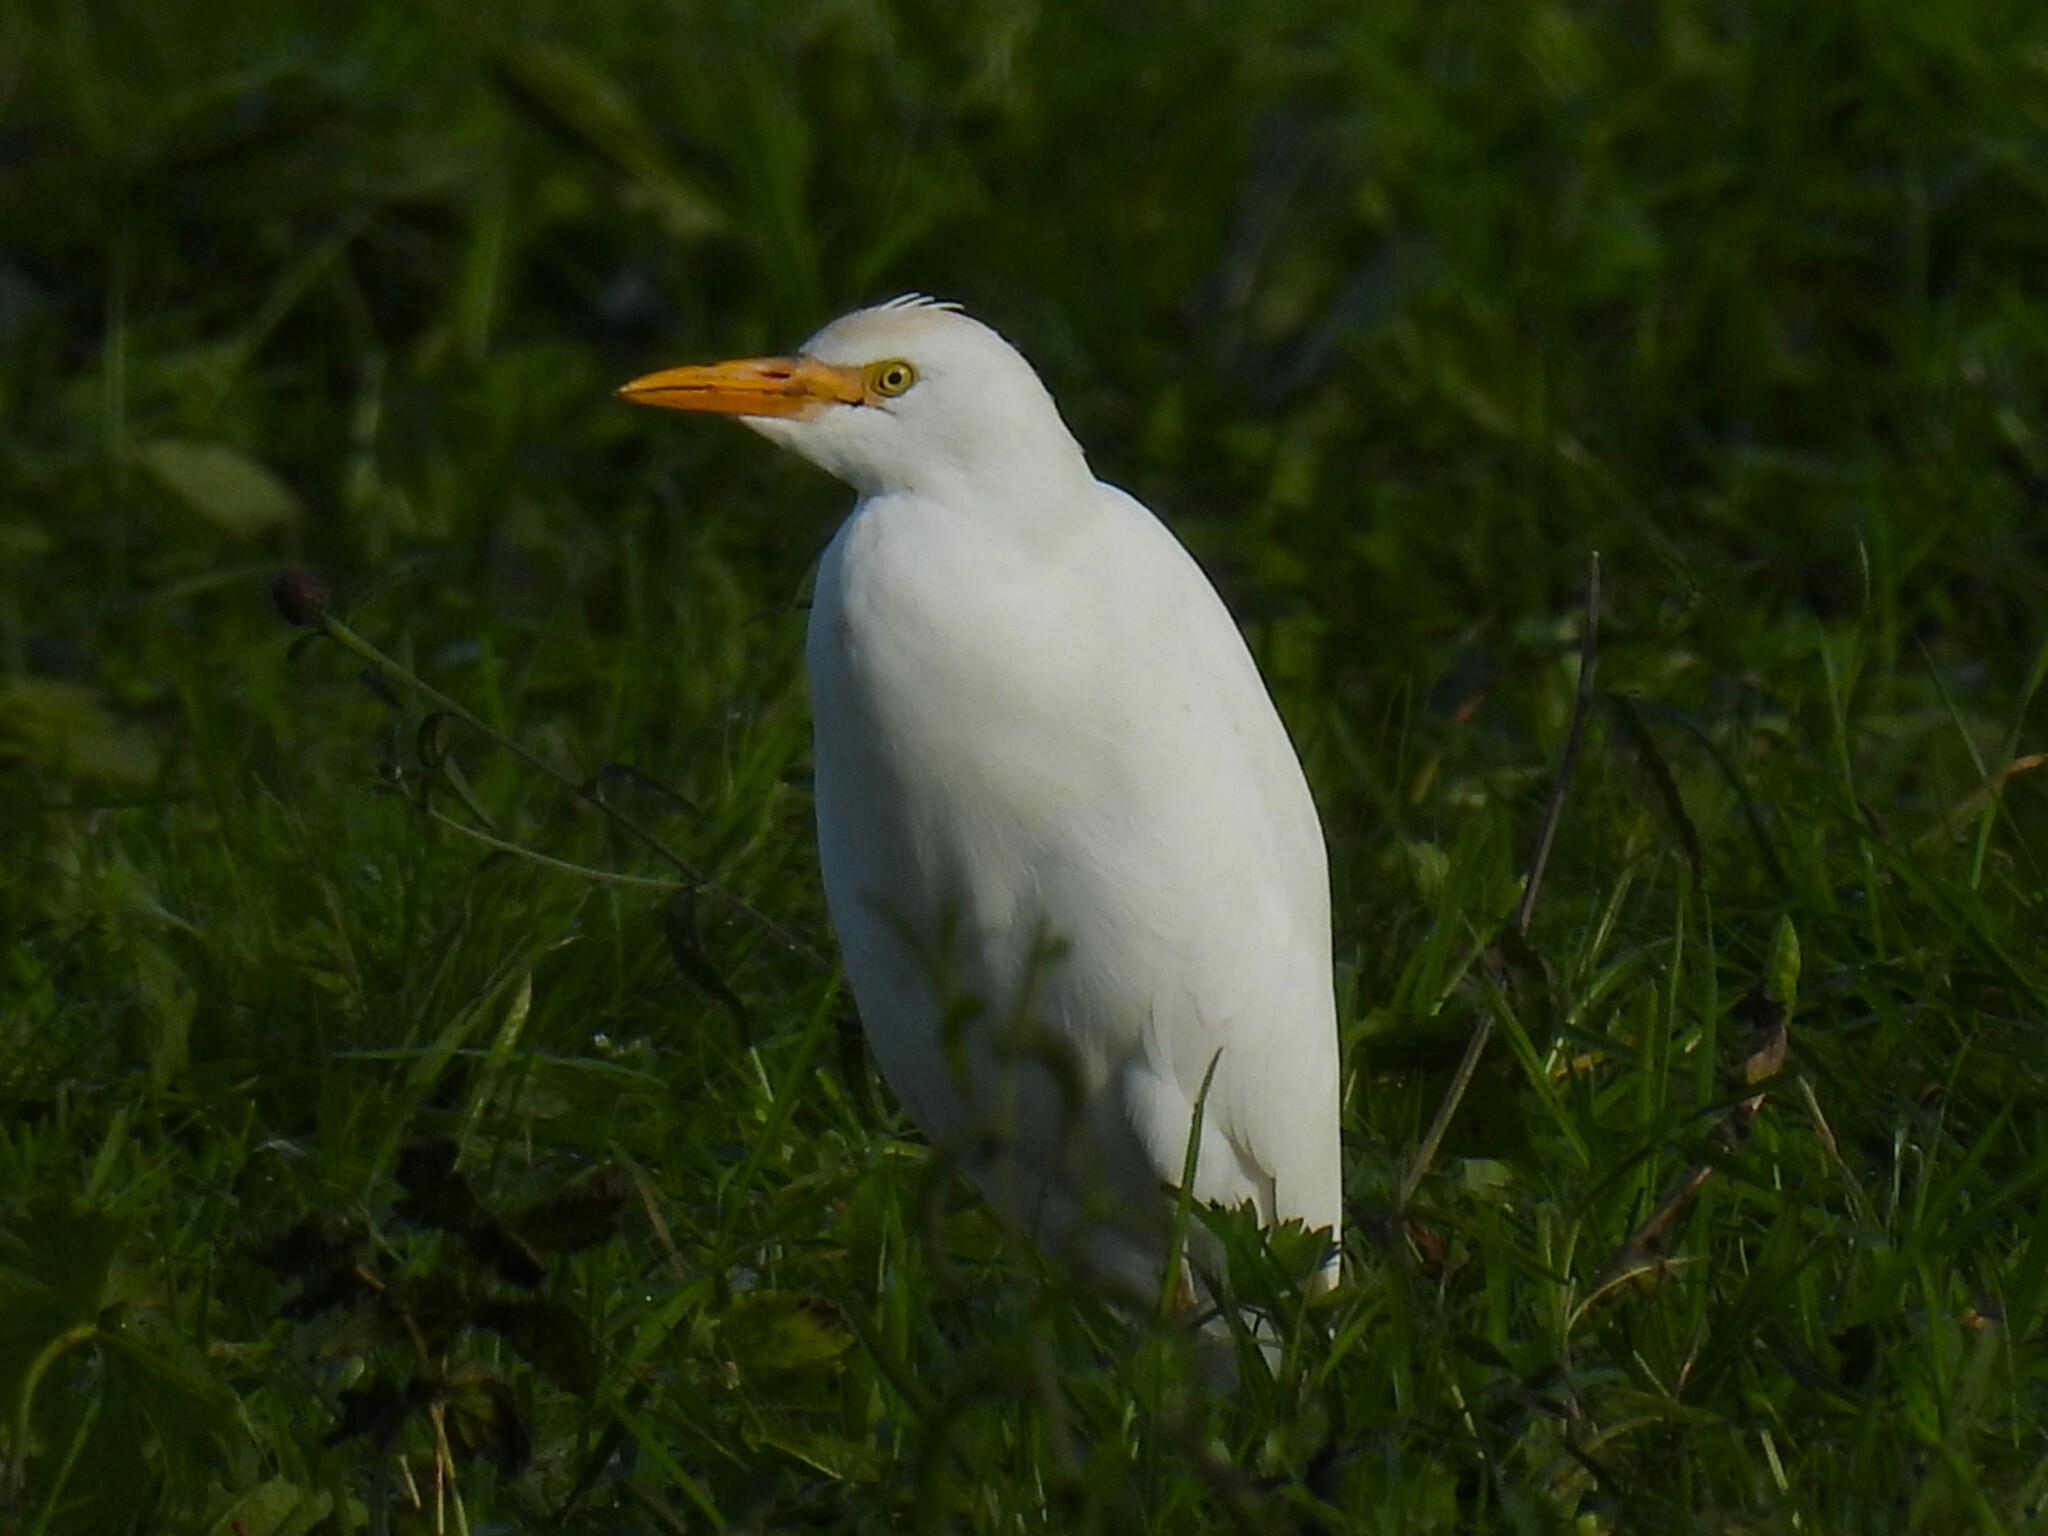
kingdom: Animalia
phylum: Chordata
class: Aves
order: Pelecaniformes
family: Ardeidae
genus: Bubulcus
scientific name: Bubulcus ibis
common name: Cattle egret
